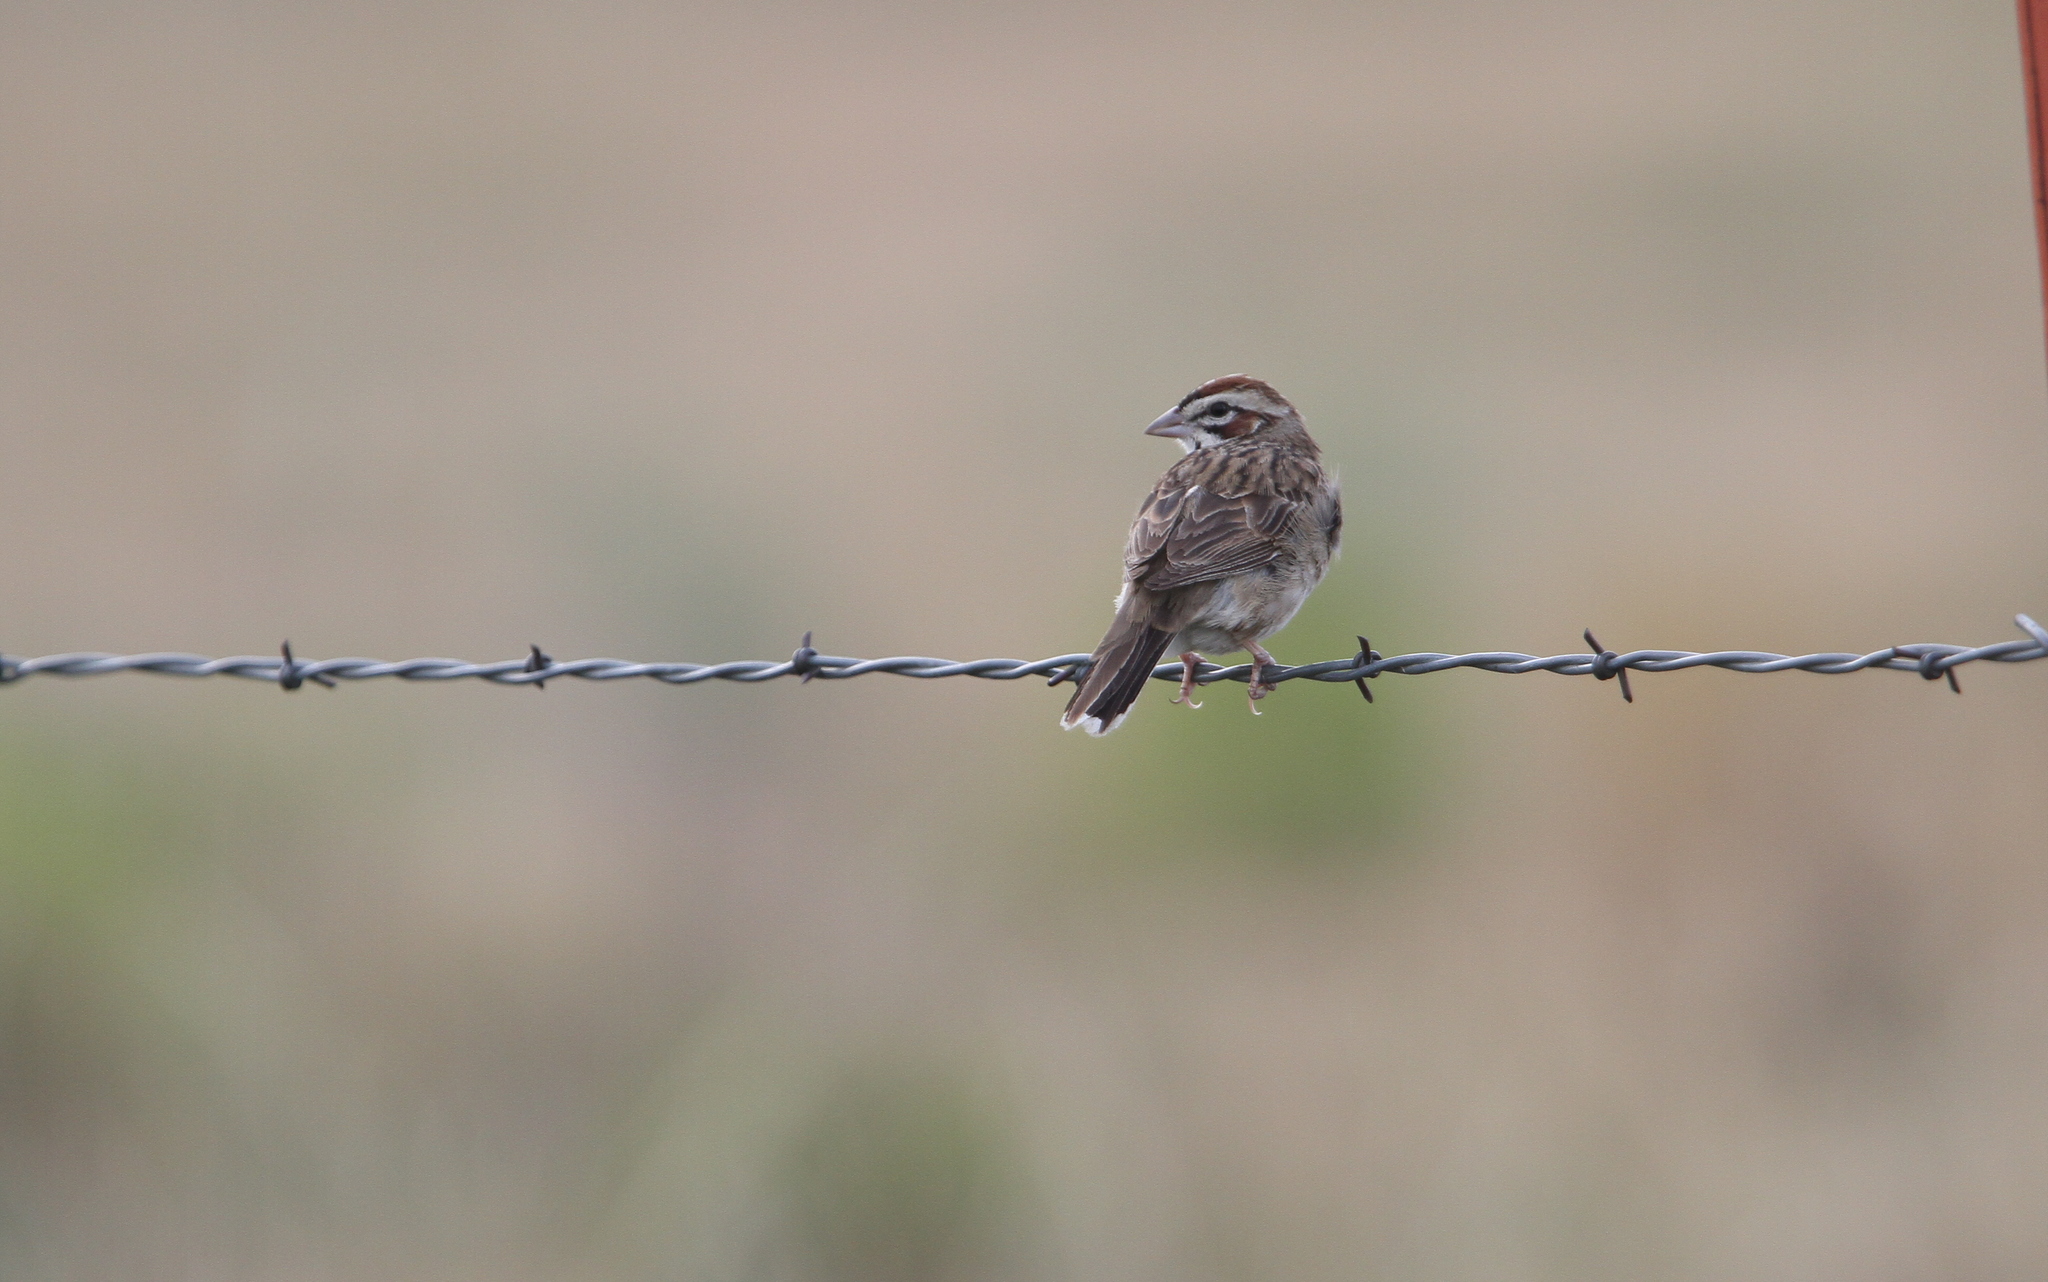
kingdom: Animalia
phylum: Chordata
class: Aves
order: Passeriformes
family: Passerellidae
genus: Chondestes
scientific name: Chondestes grammacus
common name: Lark sparrow
